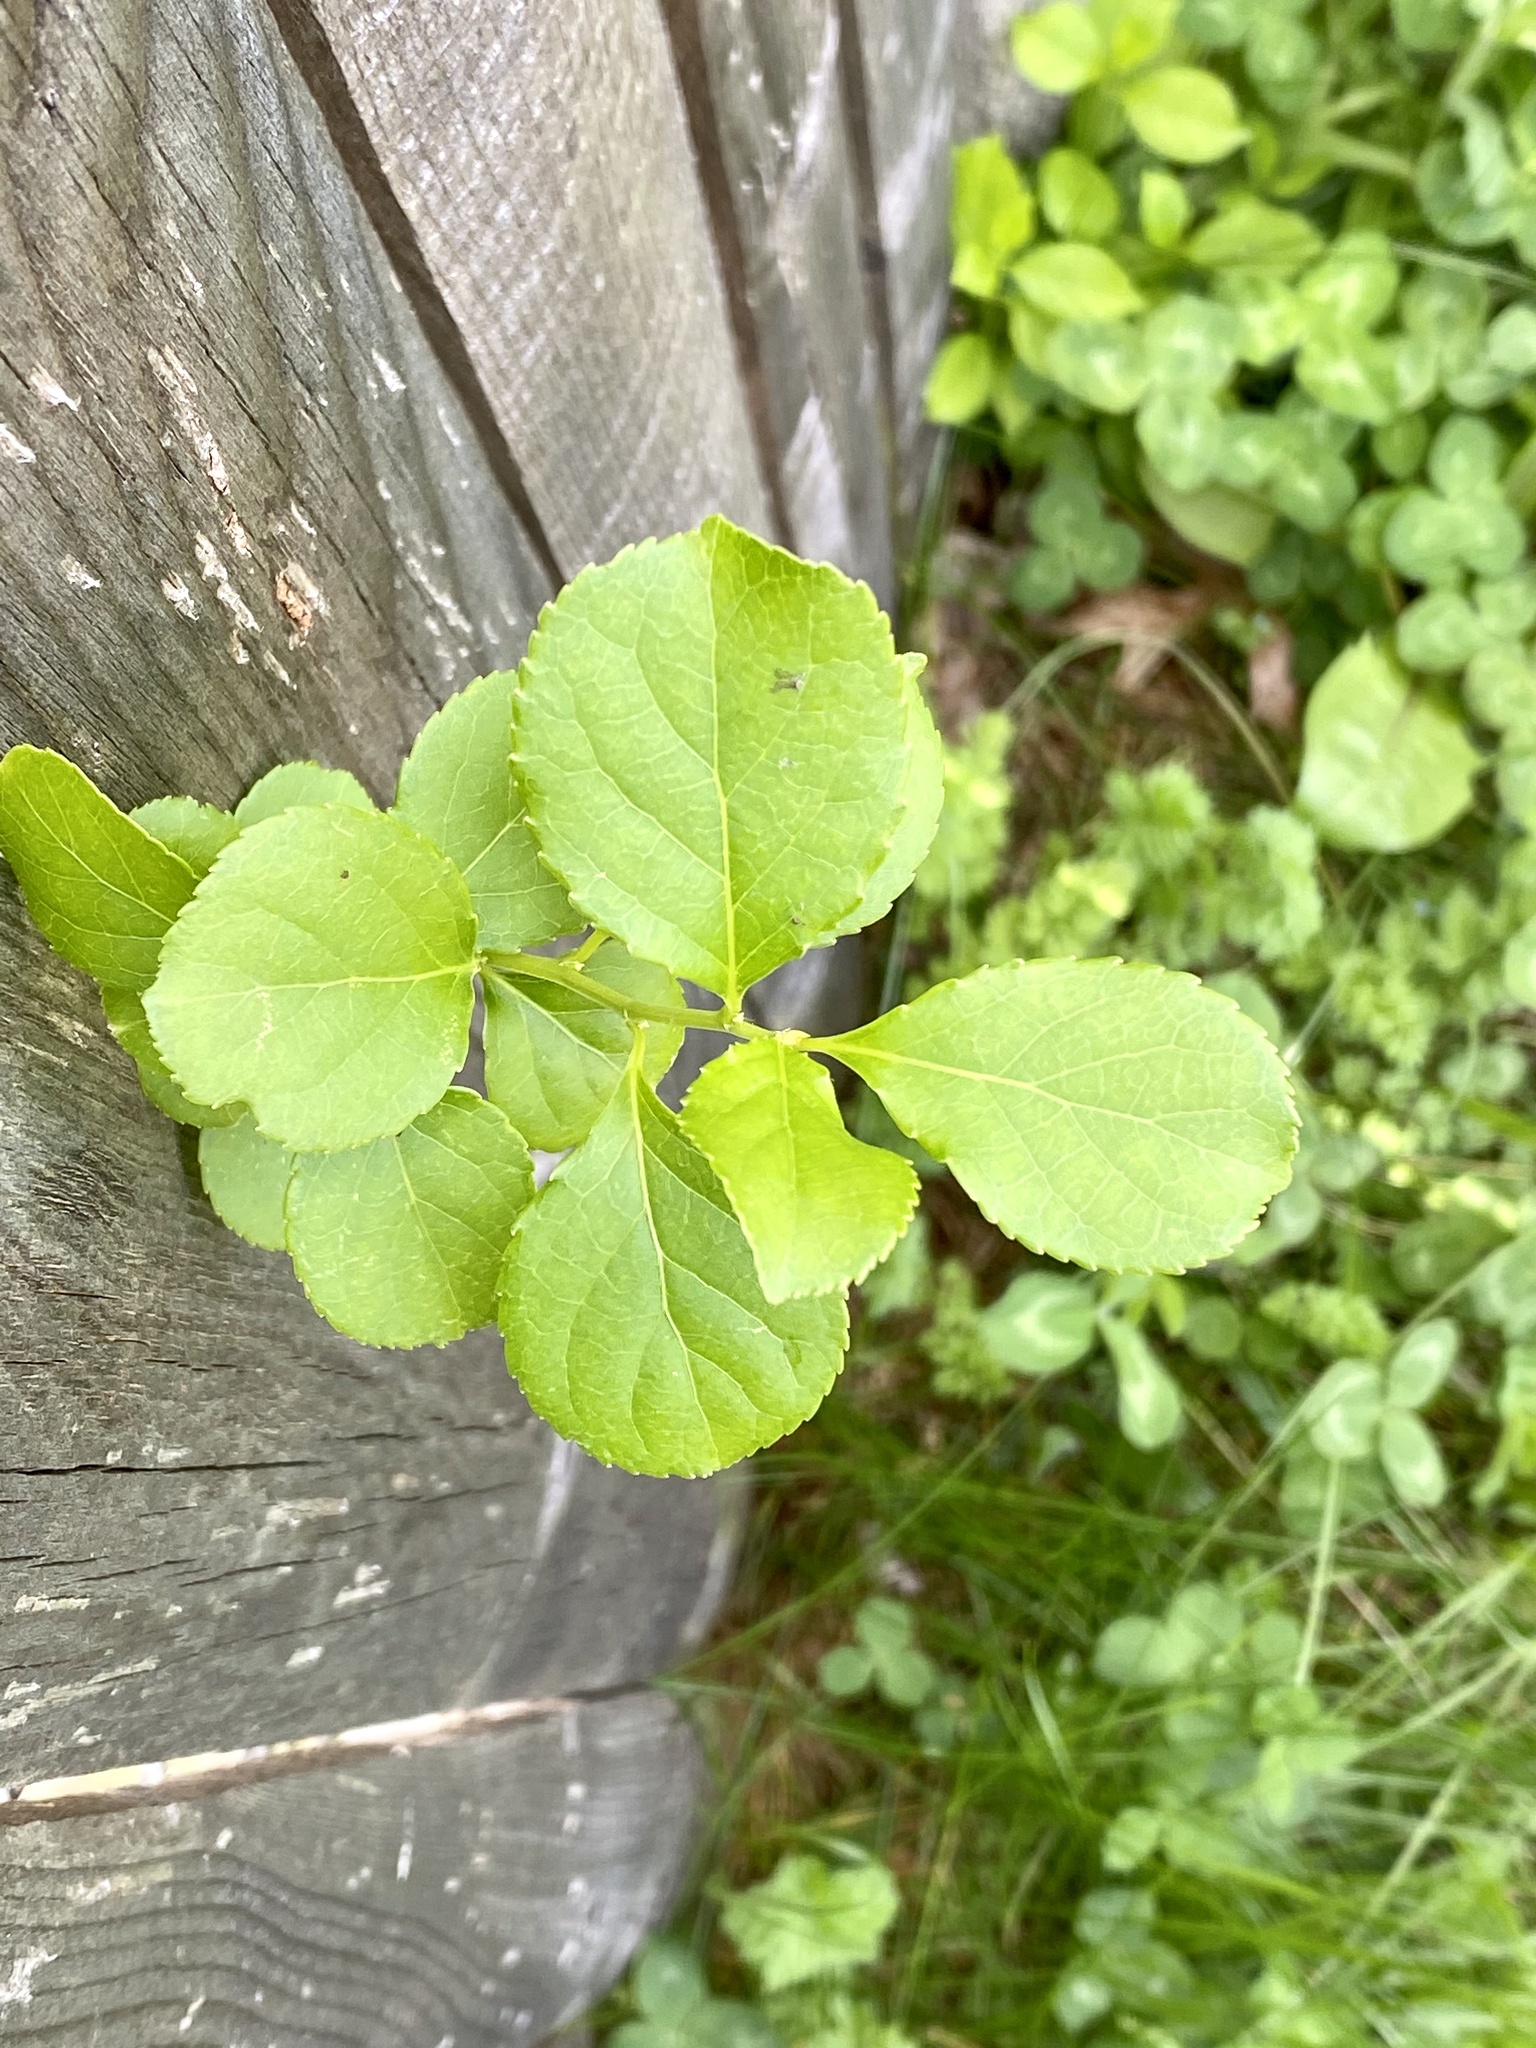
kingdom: Plantae
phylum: Tracheophyta
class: Magnoliopsida
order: Celastrales
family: Celastraceae
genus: Celastrus
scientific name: Celastrus orbiculatus
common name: Oriental bittersweet
